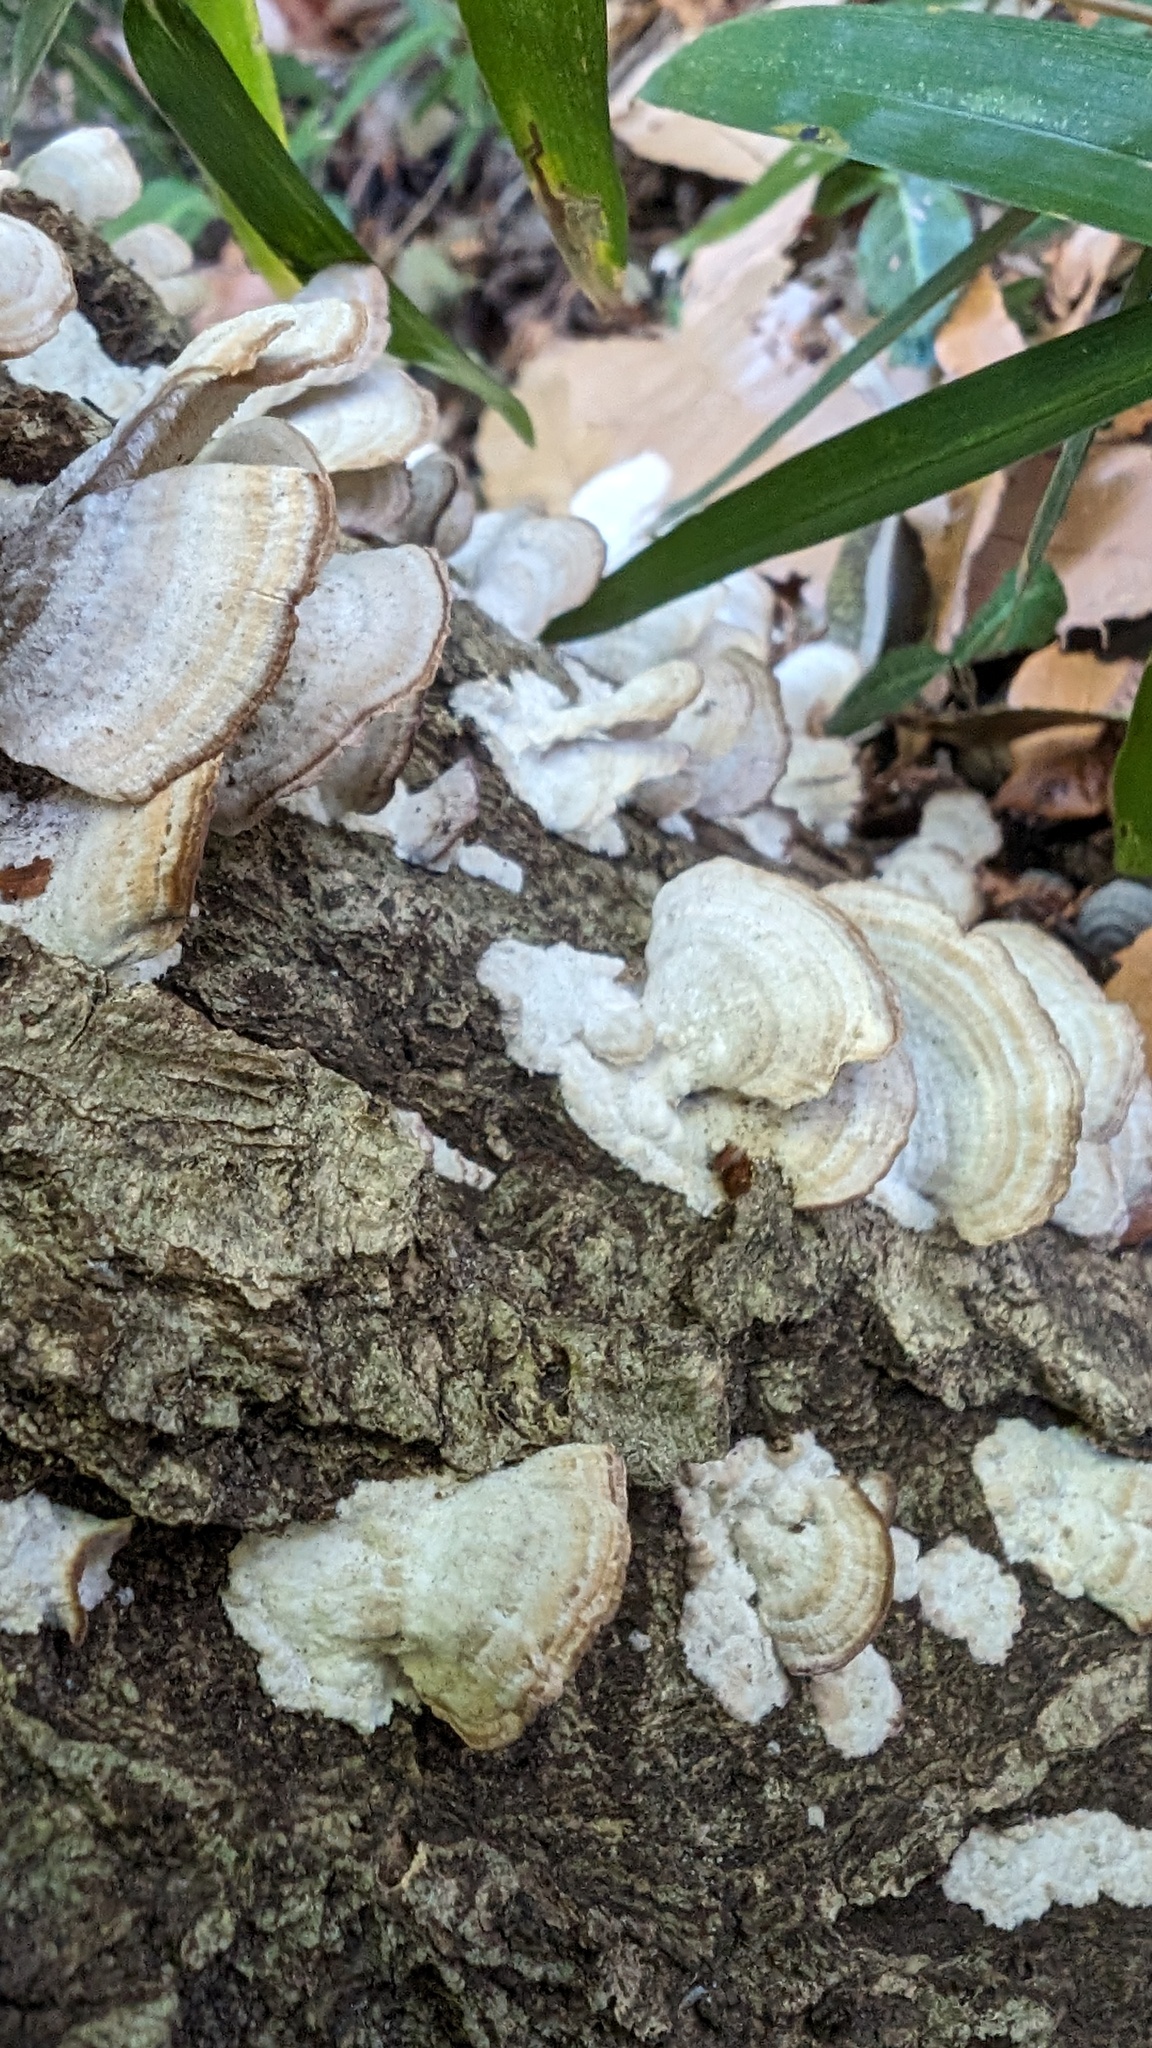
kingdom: Fungi
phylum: Basidiomycota
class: Agaricomycetes
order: Hymenochaetales
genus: Trichaptum
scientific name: Trichaptum biforme
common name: Violet-toothed polypore
